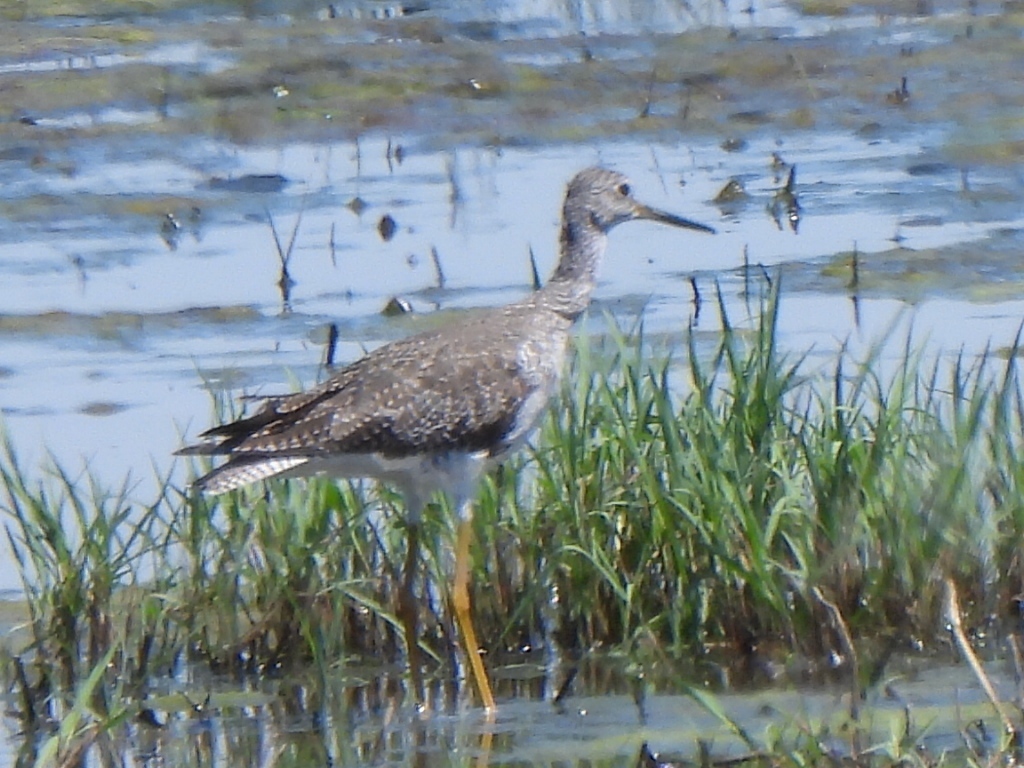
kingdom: Animalia
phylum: Chordata
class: Aves
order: Charadriiformes
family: Scolopacidae
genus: Tringa
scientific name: Tringa melanoleuca
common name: Greater yellowlegs
